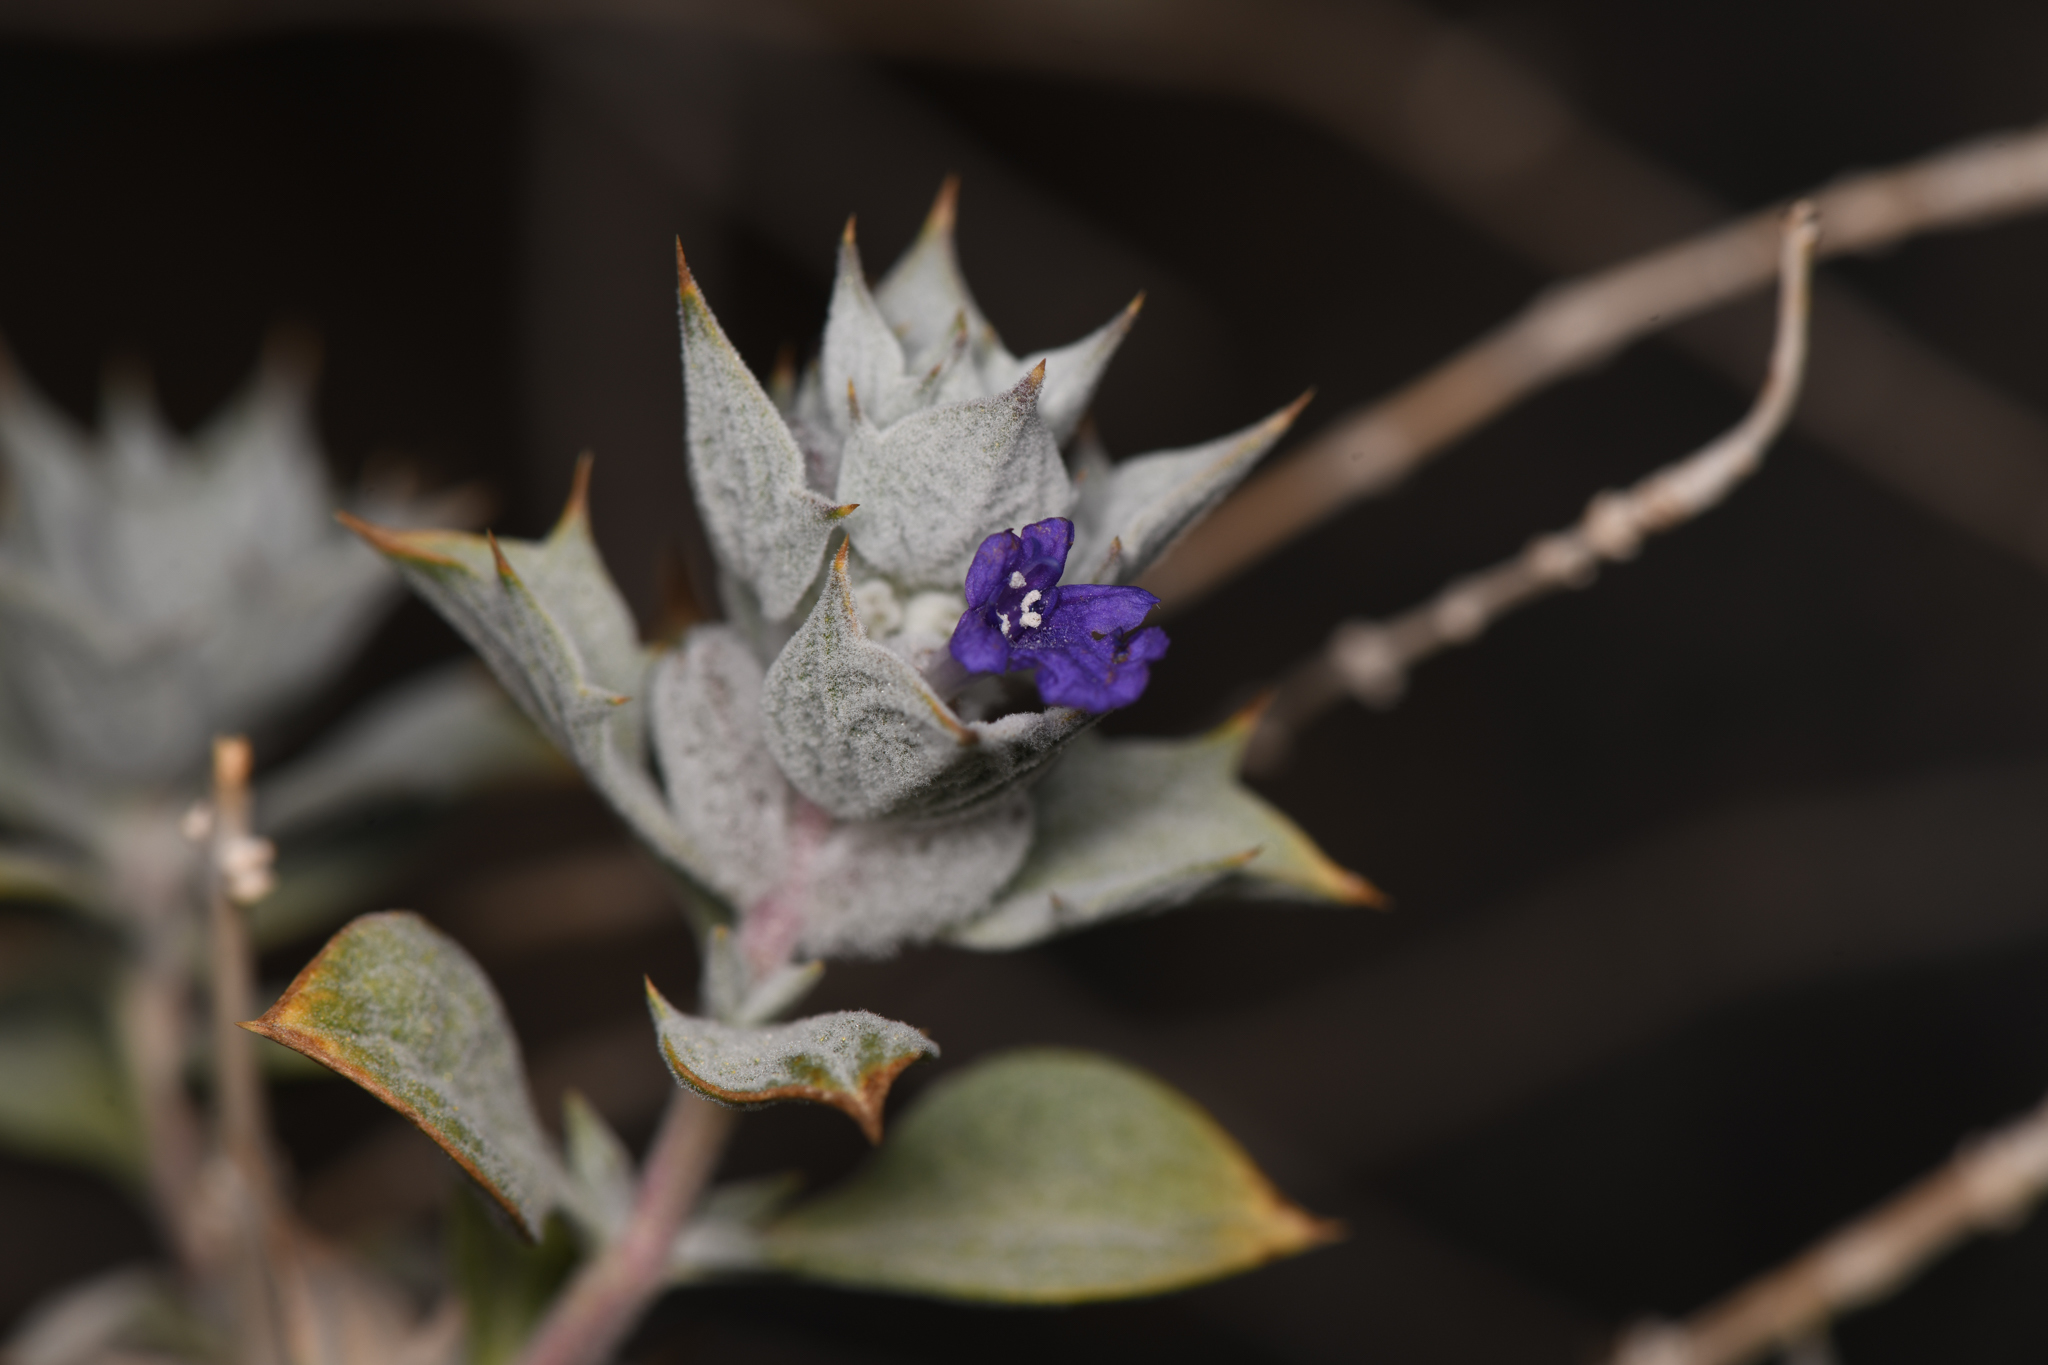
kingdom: Plantae
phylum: Tracheophyta
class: Magnoliopsida
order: Lamiales
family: Lamiaceae
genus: Salvia
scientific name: Salvia funerea
